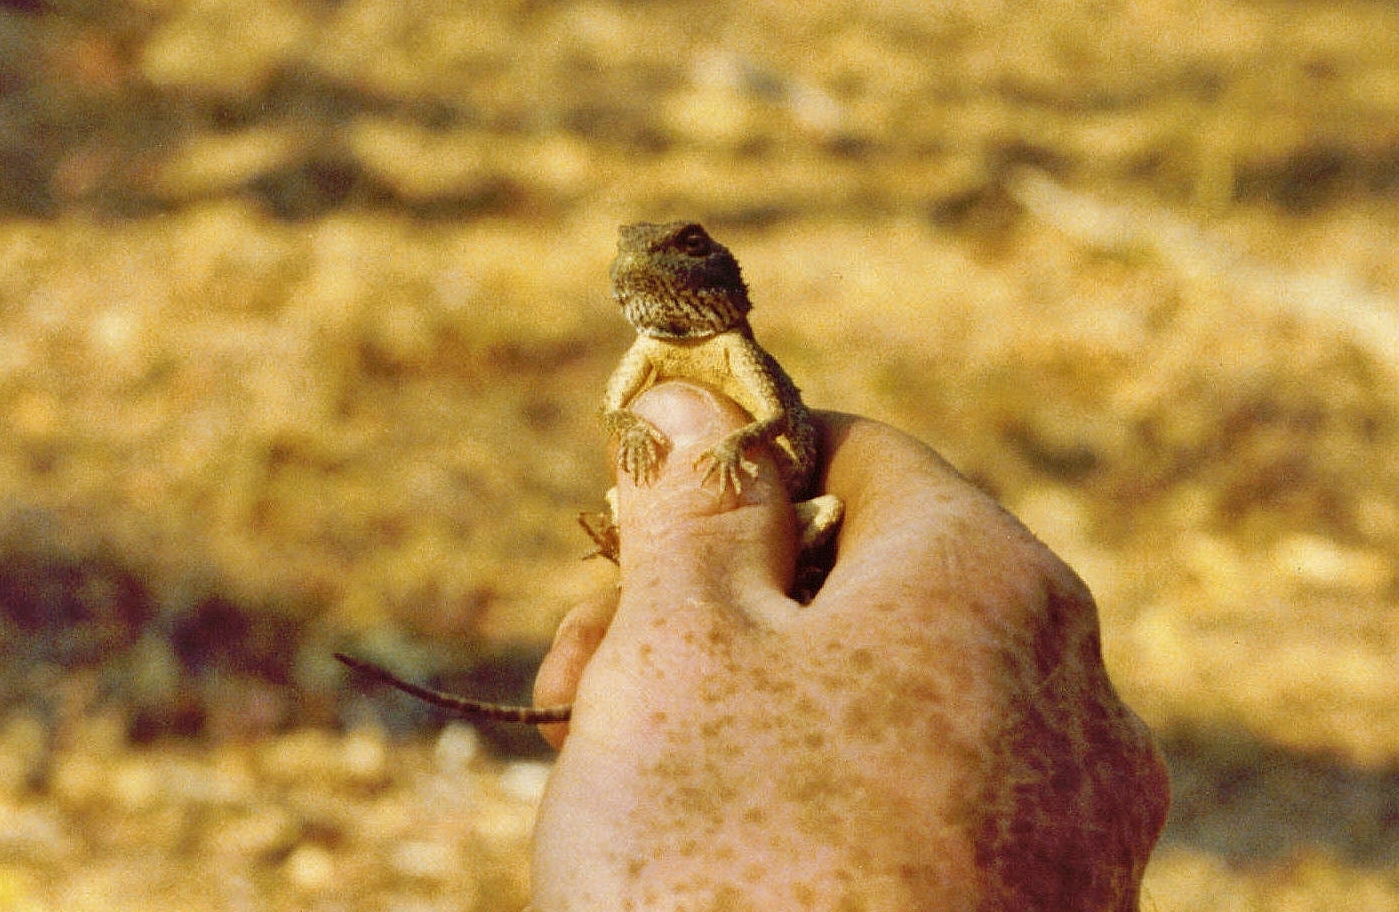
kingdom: Animalia
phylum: Chordata
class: Squamata
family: Agamidae
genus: Agama
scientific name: Agama aculeata
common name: Common ground agama
